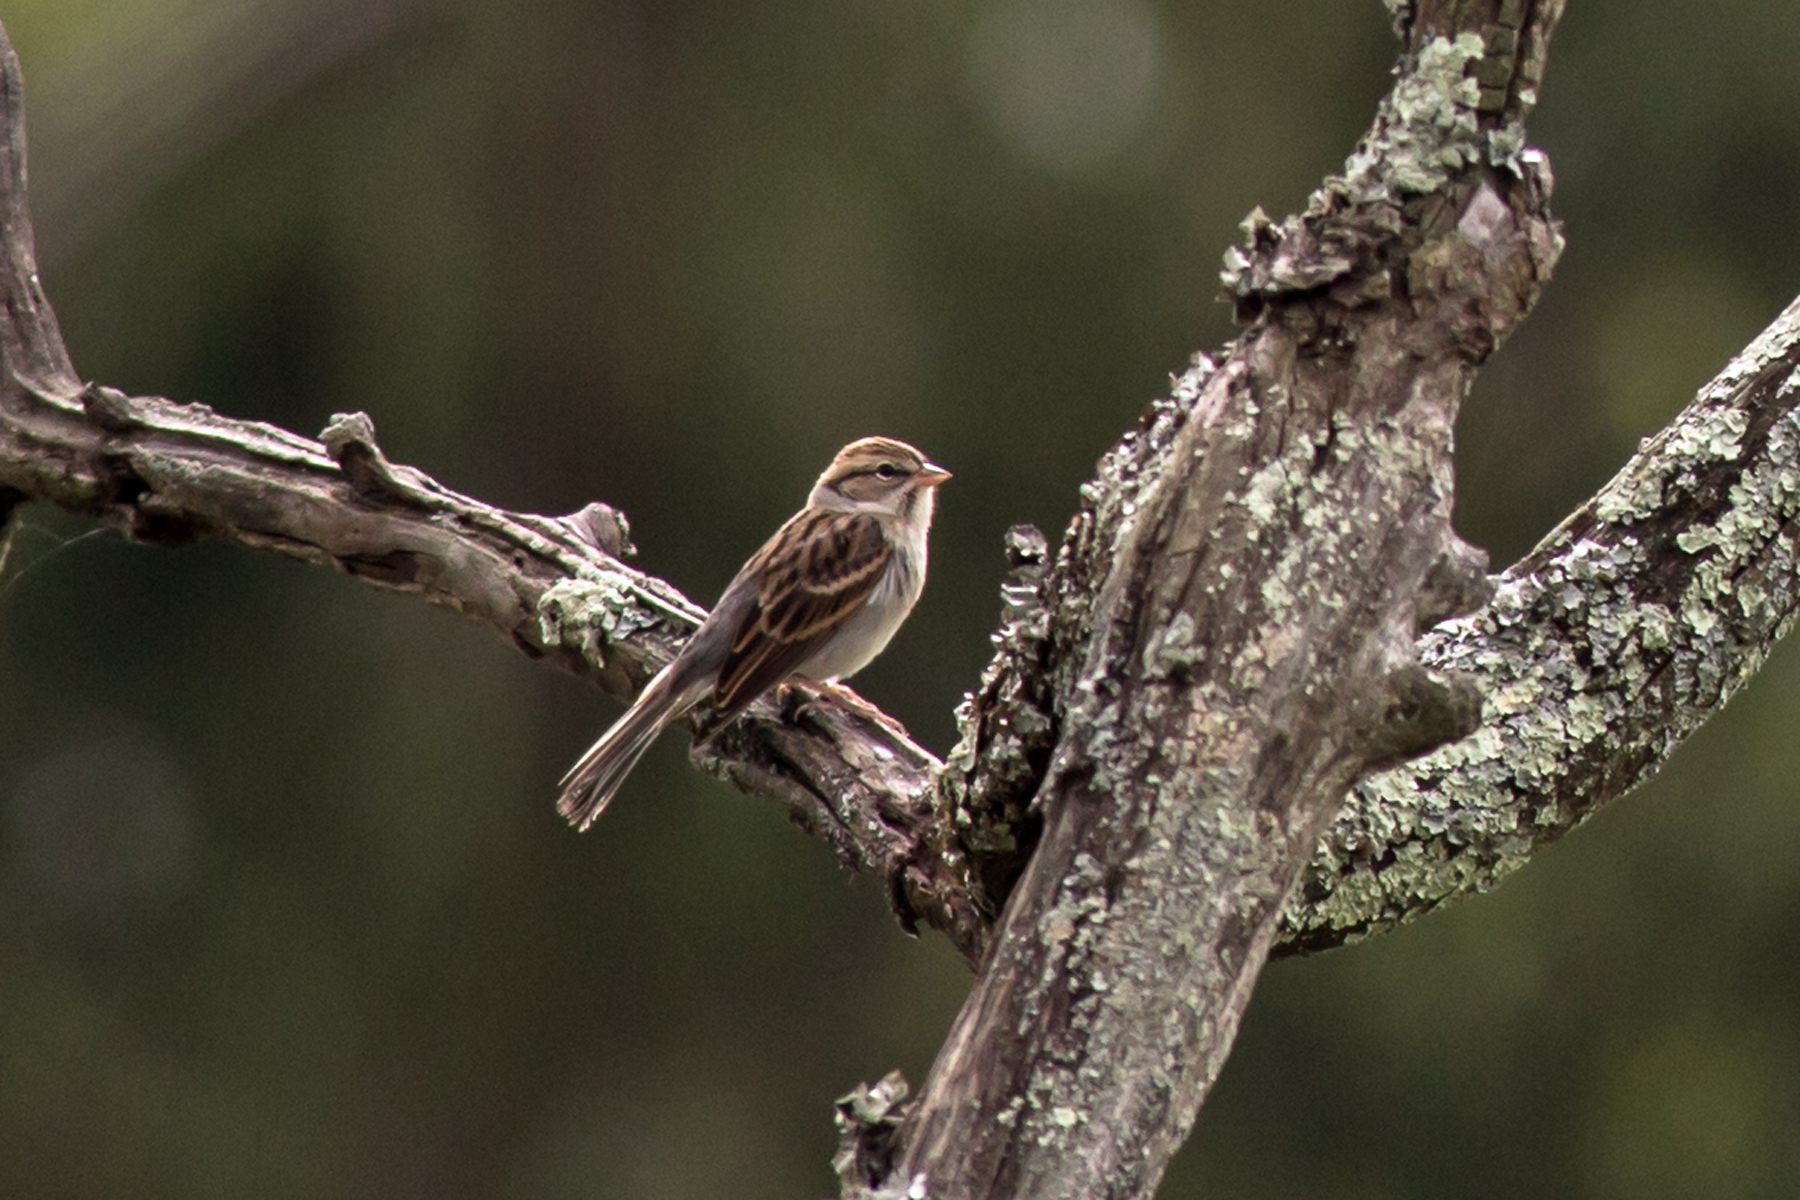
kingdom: Animalia
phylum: Chordata
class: Aves
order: Passeriformes
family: Passerellidae
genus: Spizella
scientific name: Spizella passerina
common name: Chipping sparrow
